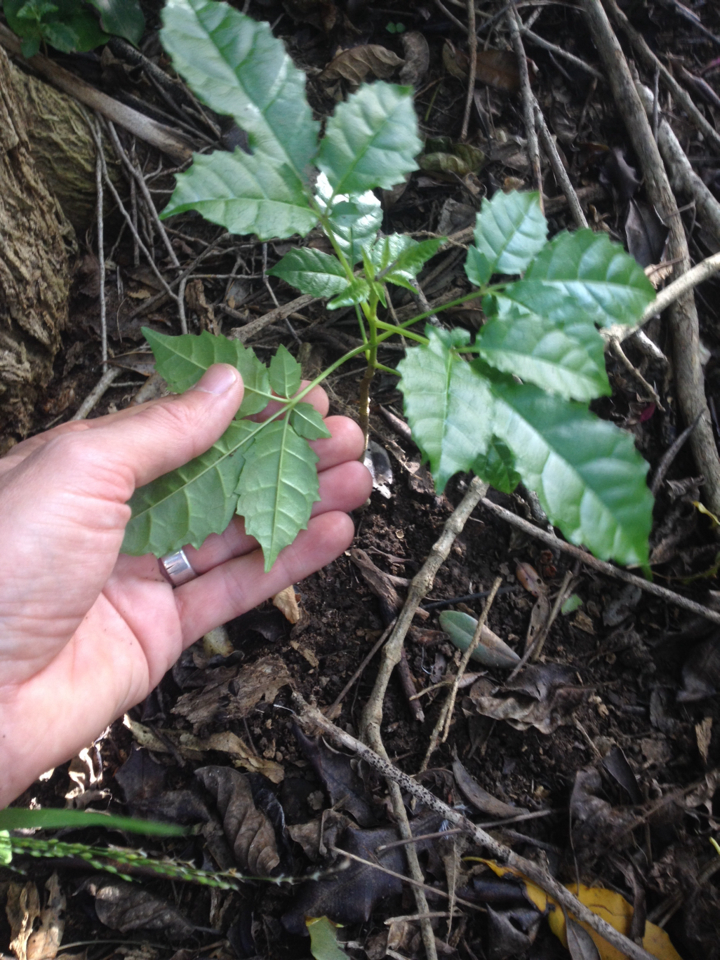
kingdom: Plantae
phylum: Tracheophyta
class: Magnoliopsida
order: Lamiales
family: Lamiaceae
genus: Vitex
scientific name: Vitex lucens
